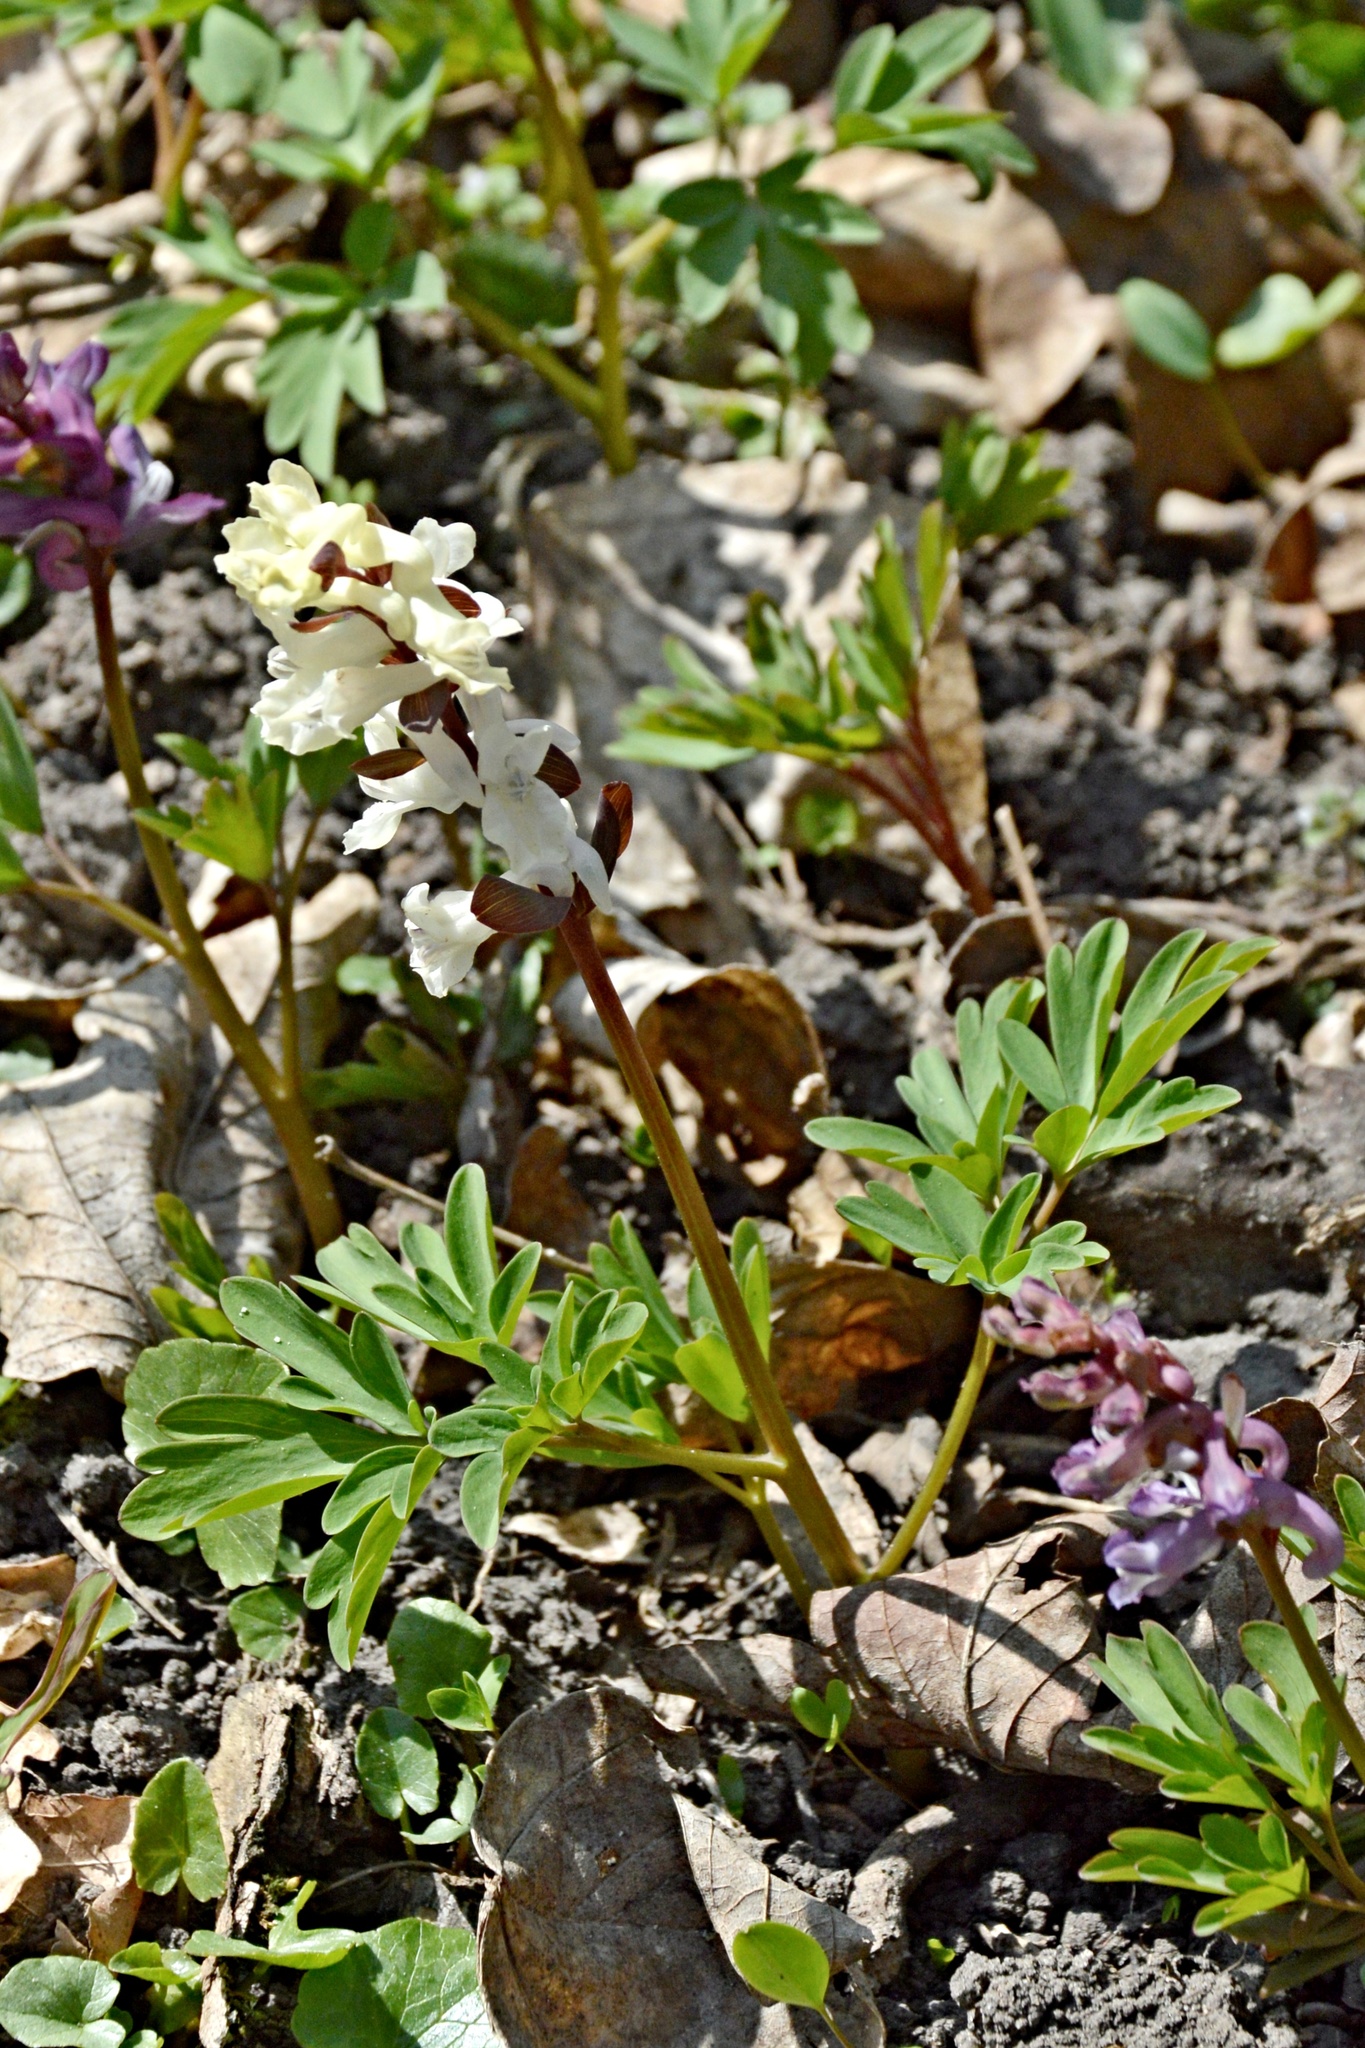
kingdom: Plantae
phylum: Tracheophyta
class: Magnoliopsida
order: Ranunculales
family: Papaveraceae
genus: Corydalis
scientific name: Corydalis cava
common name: Hollowroot
